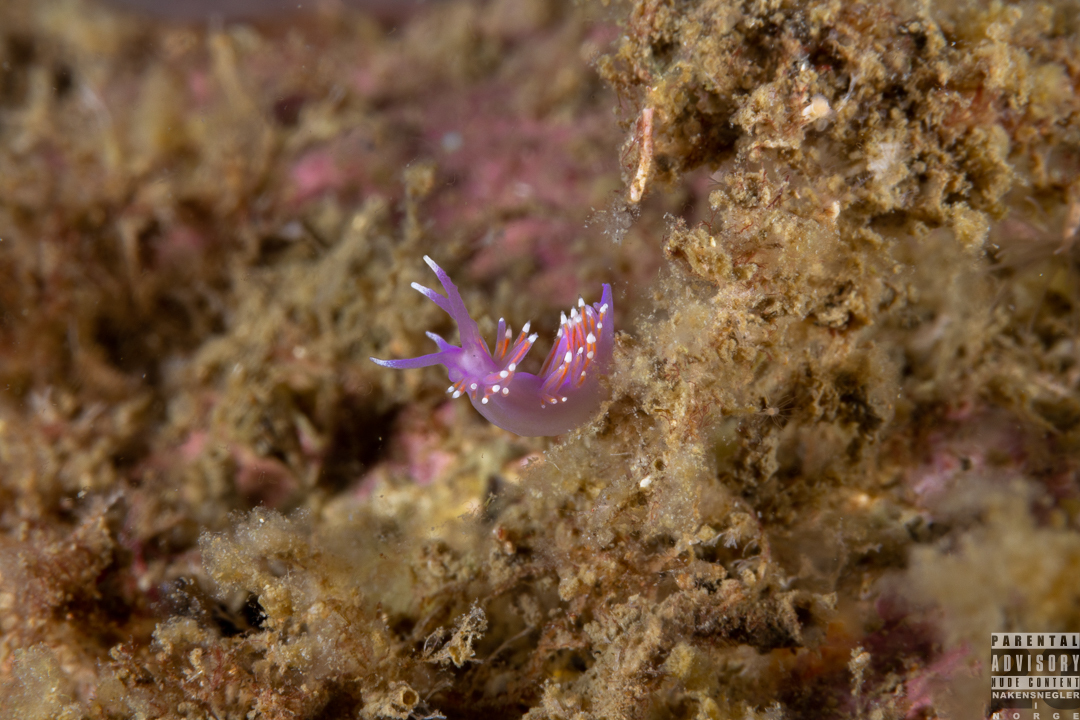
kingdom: Animalia
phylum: Mollusca
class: Gastropoda
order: Nudibranchia
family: Flabellinidae
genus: Edmundsella
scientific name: Edmundsella pedata
